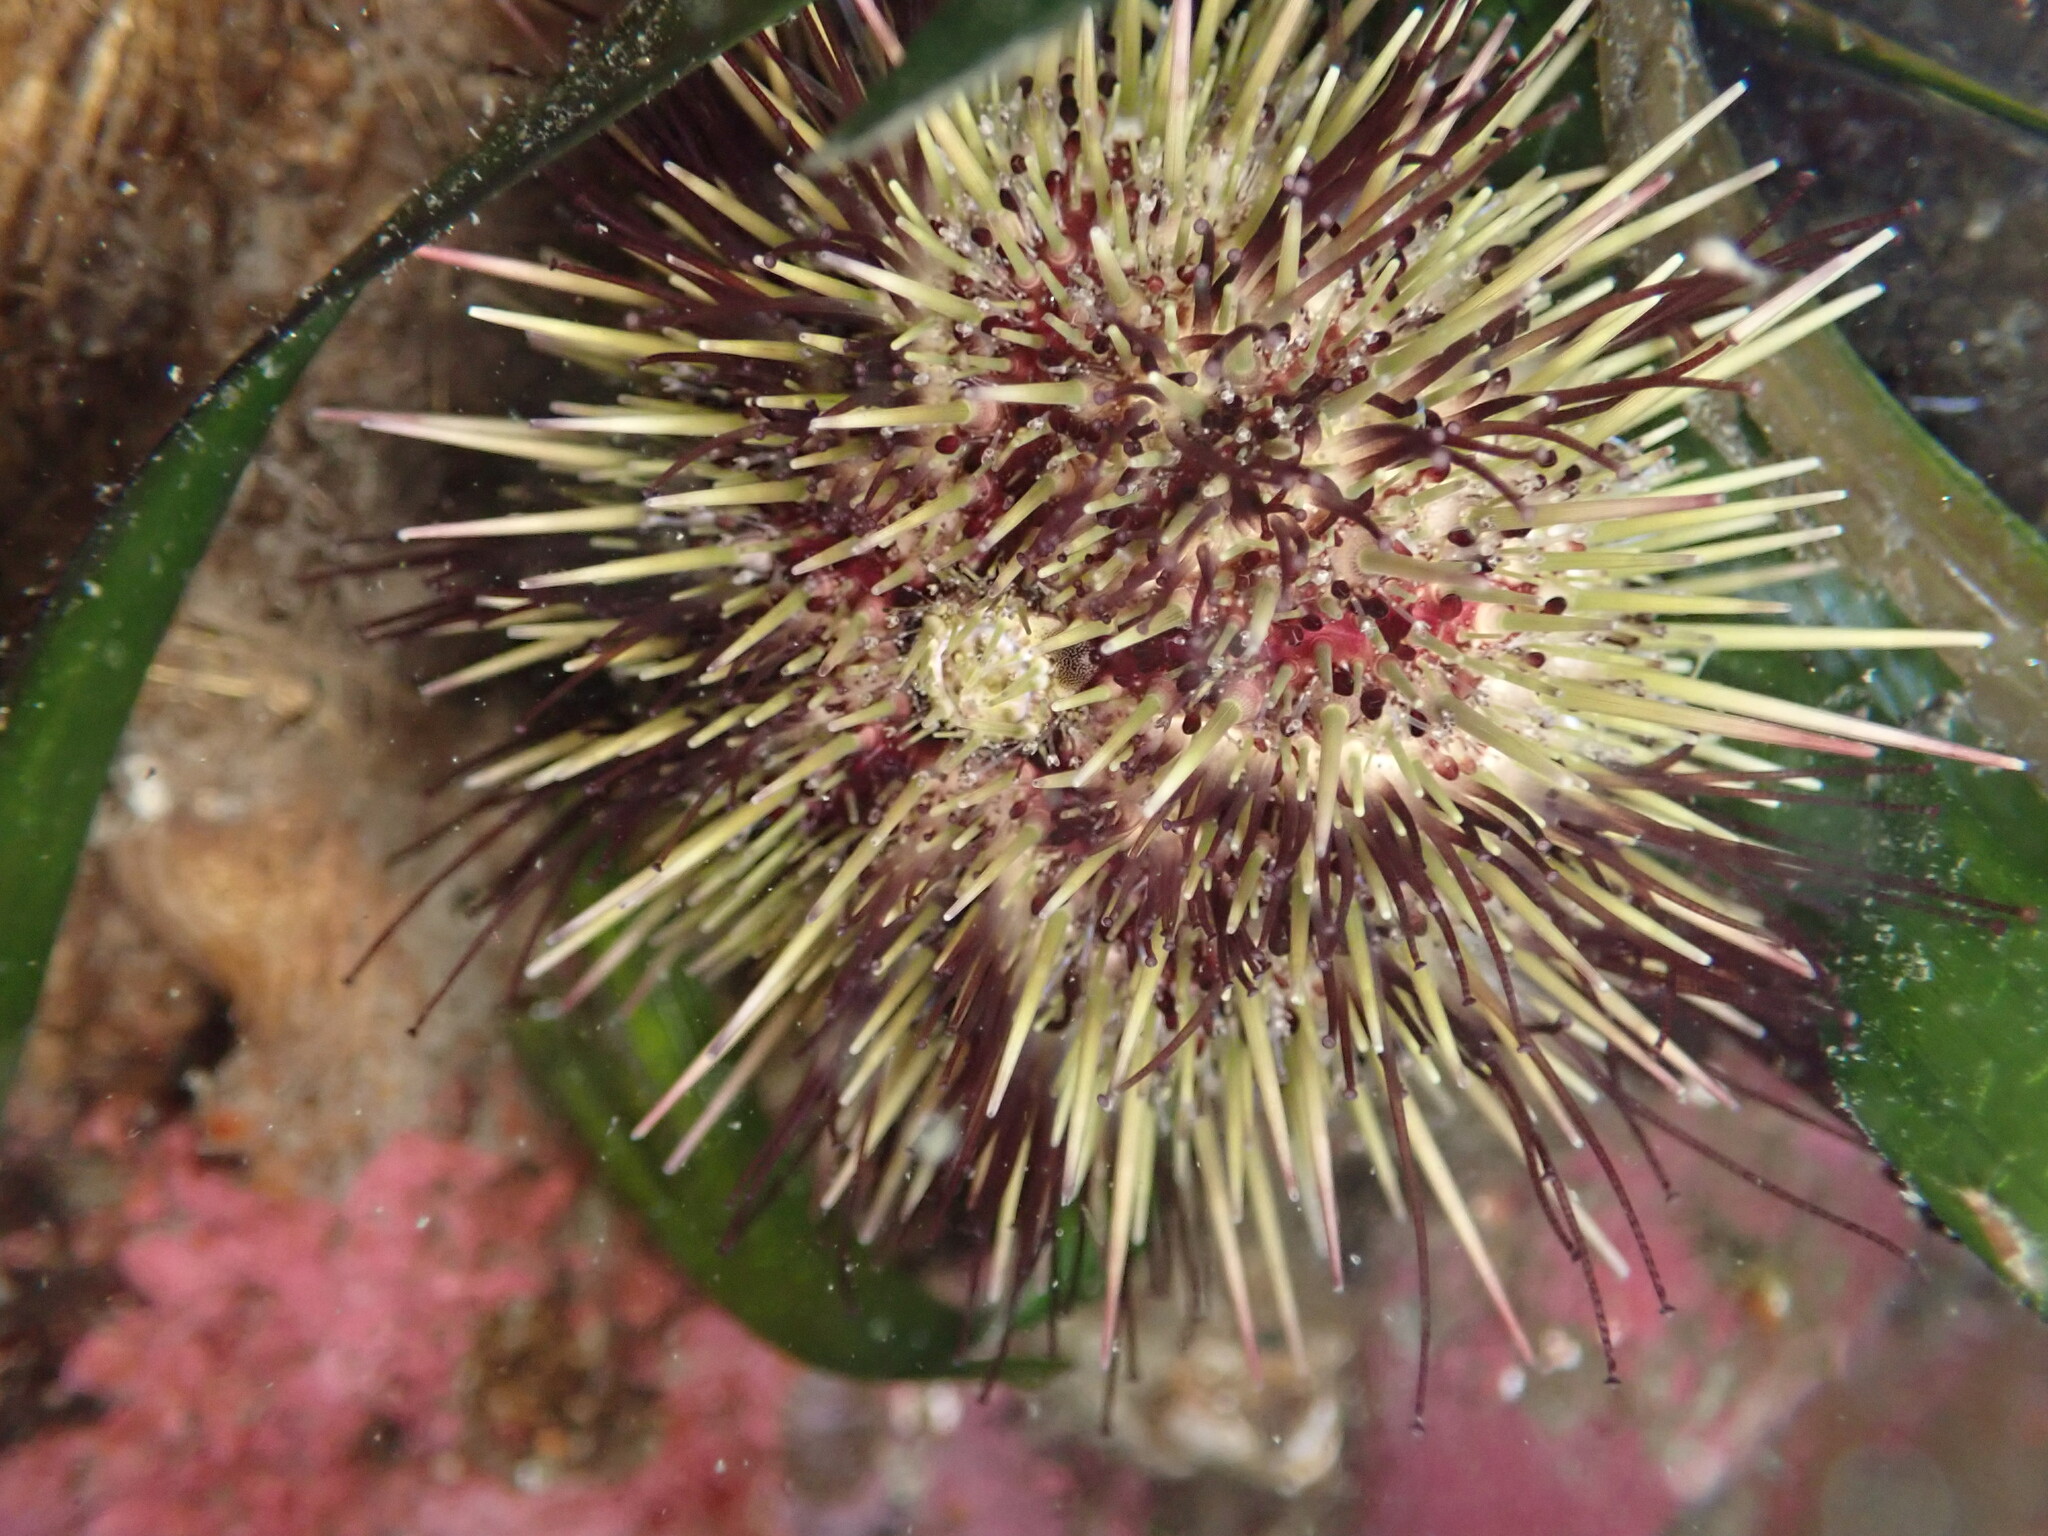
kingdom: Animalia
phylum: Echinodermata
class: Echinoidea
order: Camarodonta
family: Strongylocentrotidae
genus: Strongylocentrotus
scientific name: Strongylocentrotus droebachiensis
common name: Northern sea urchin
